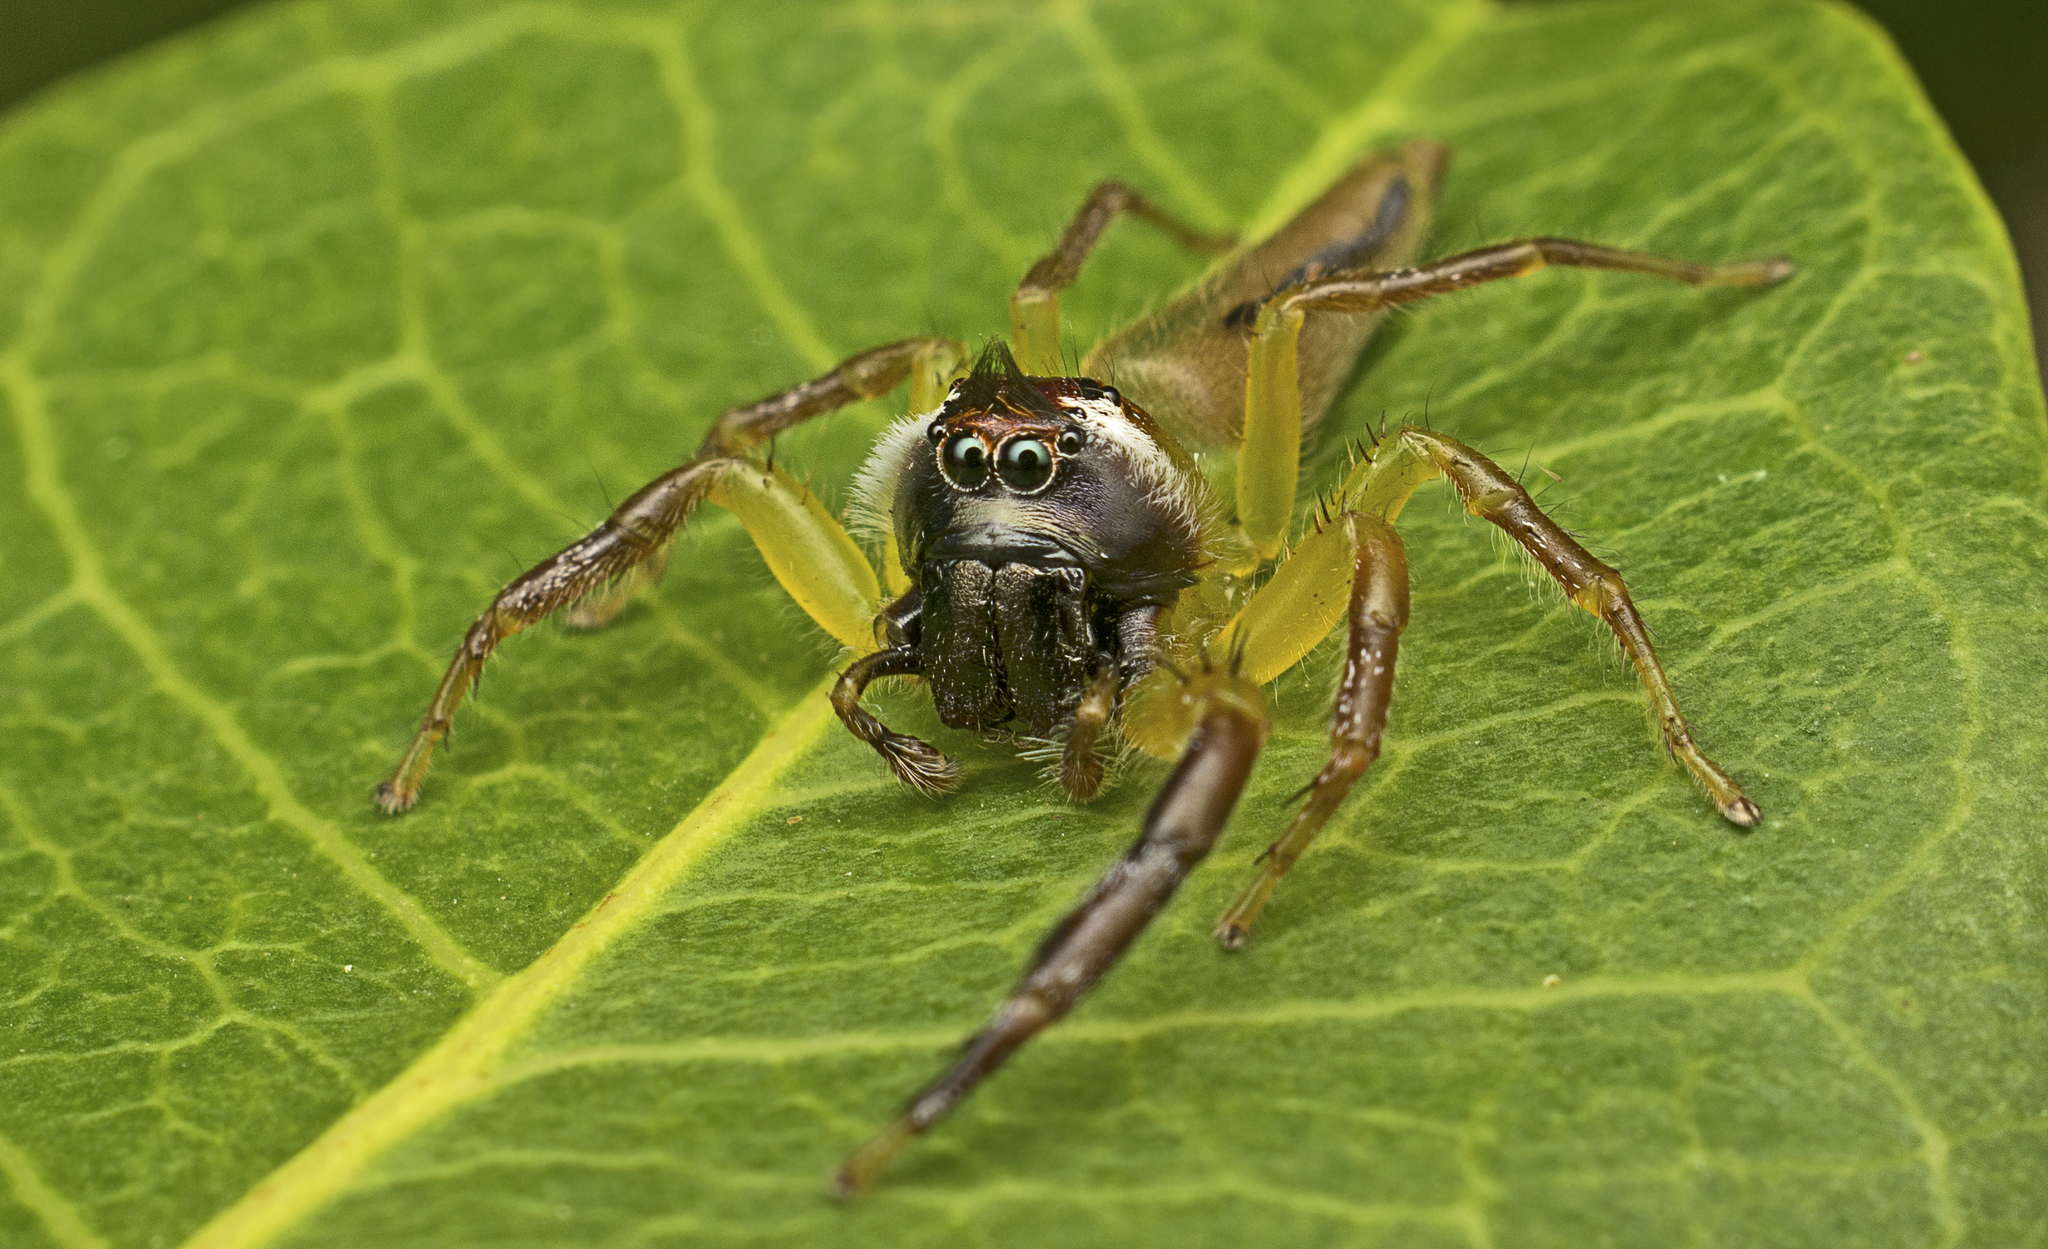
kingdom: Animalia
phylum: Arthropoda
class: Arachnida
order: Araneae
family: Salticidae
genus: Mopsus
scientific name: Mopsus mormon
